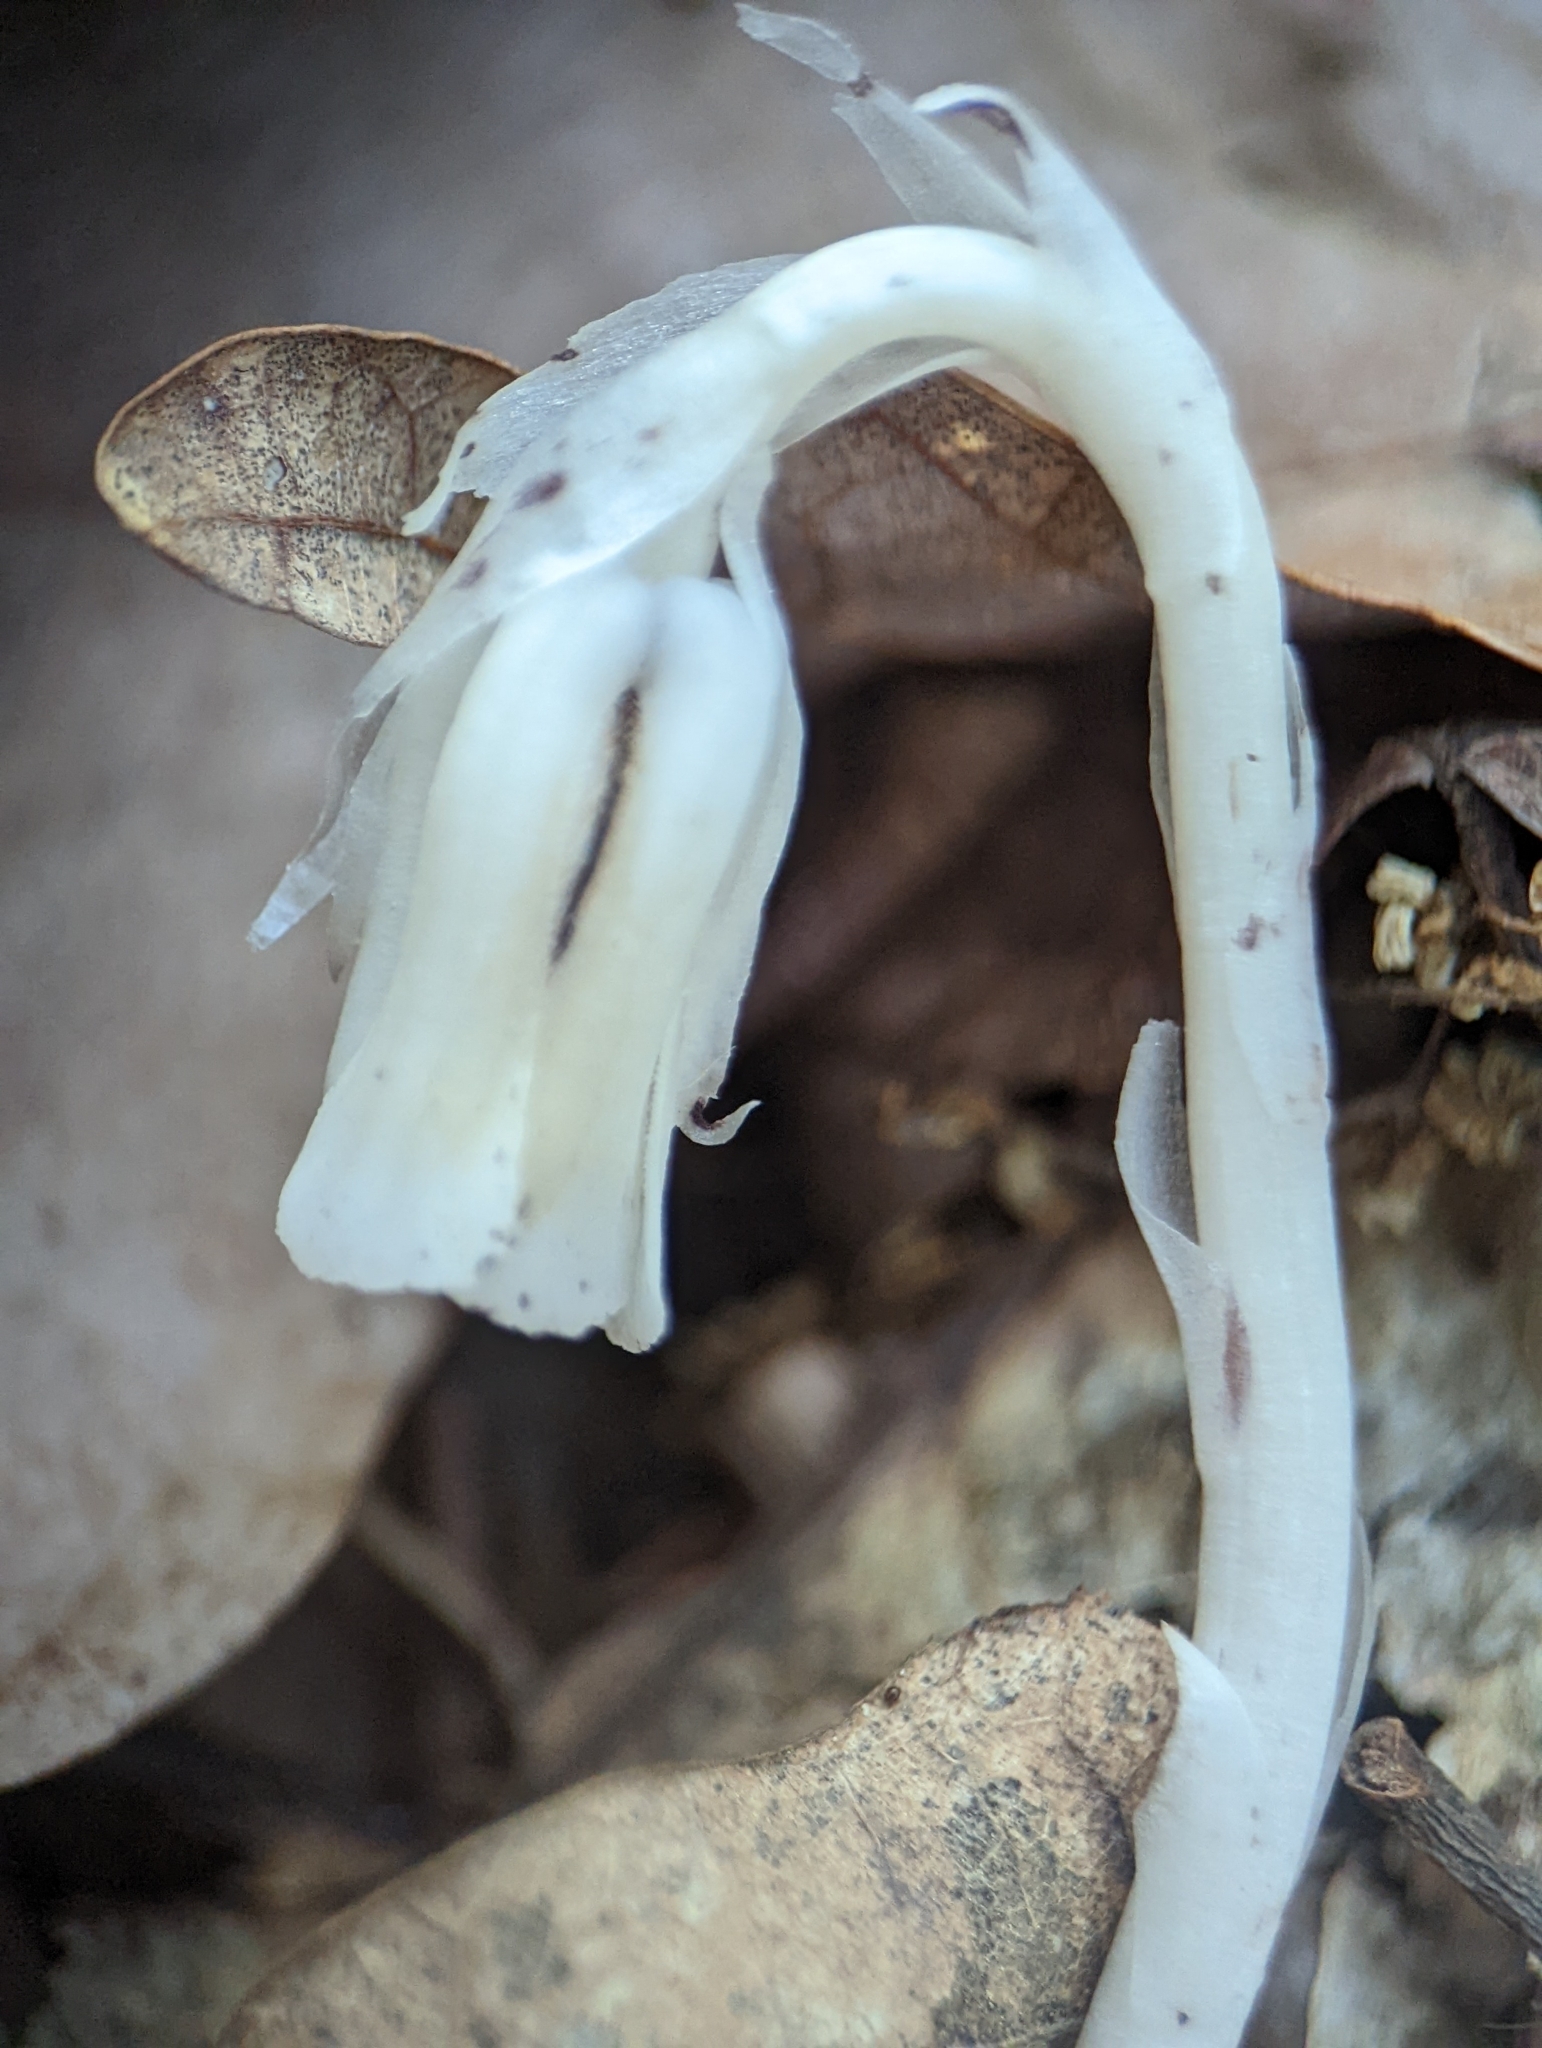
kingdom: Plantae
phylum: Tracheophyta
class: Magnoliopsida
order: Ericales
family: Ericaceae
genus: Monotropa
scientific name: Monotropa uniflora
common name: Convulsion root
